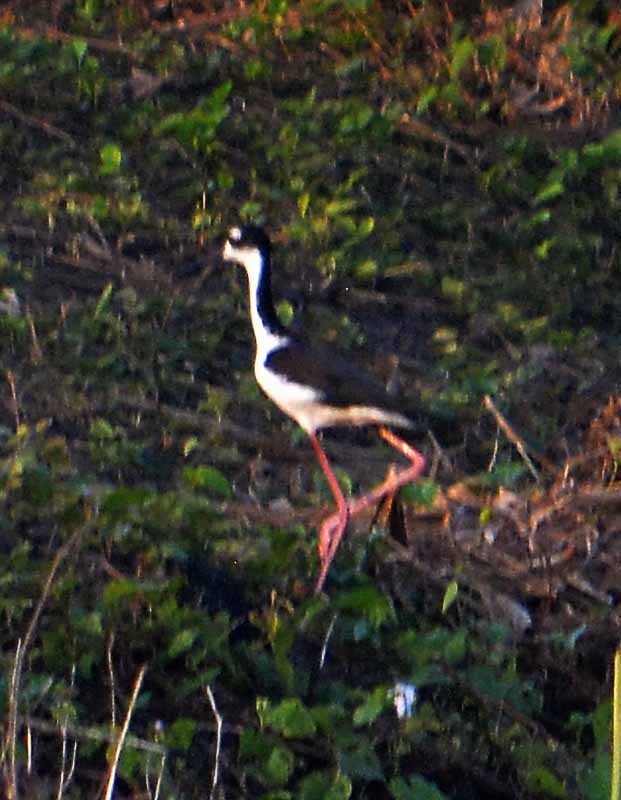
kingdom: Animalia
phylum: Chordata
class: Aves
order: Charadriiformes
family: Recurvirostridae
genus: Himantopus
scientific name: Himantopus mexicanus
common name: Black-necked stilt
